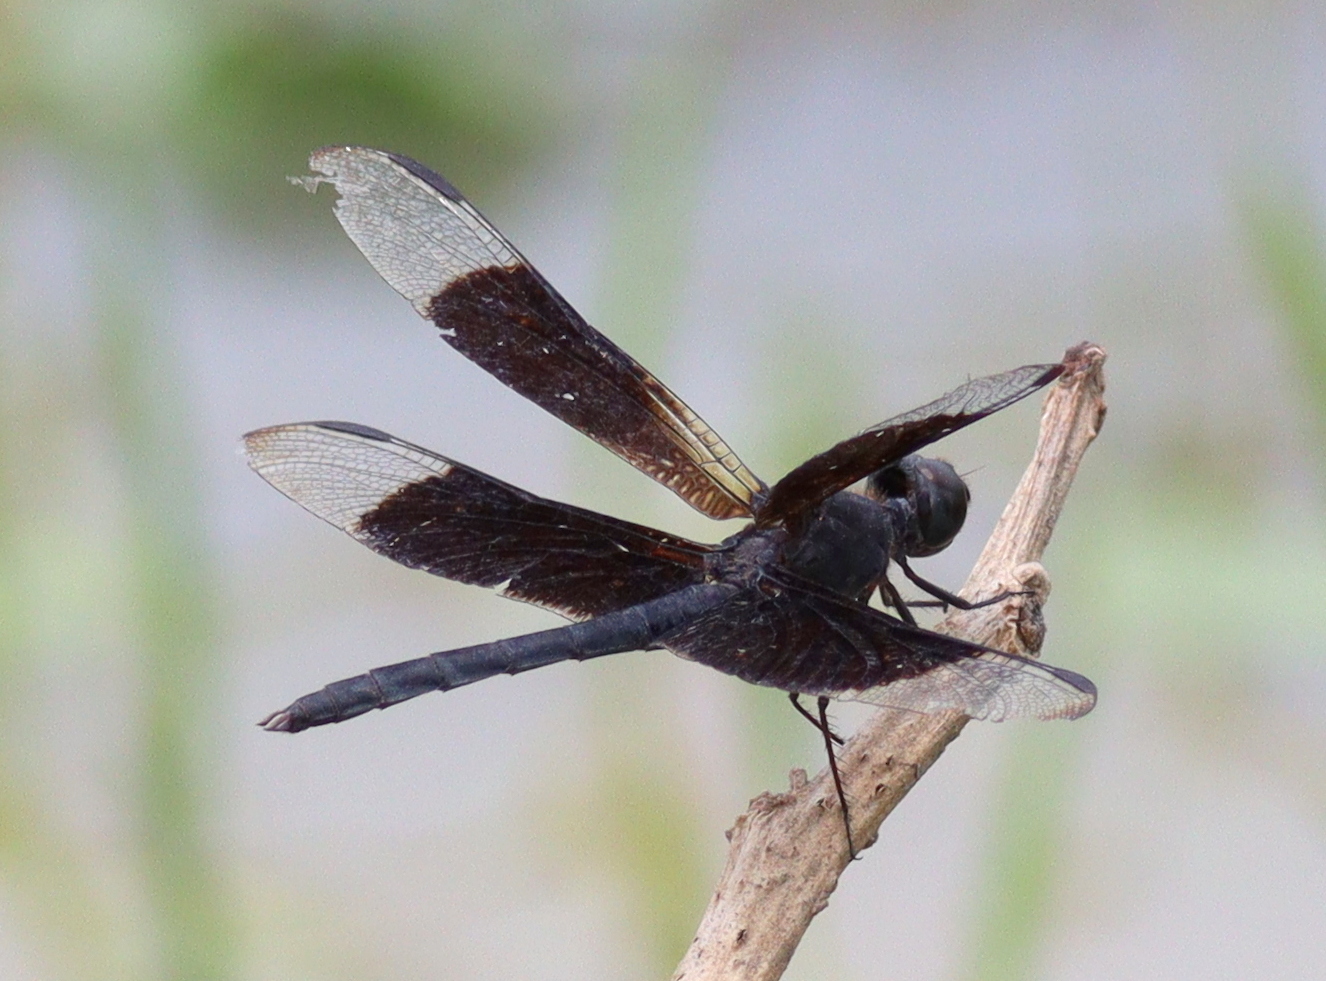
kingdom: Animalia
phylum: Arthropoda
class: Insecta
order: Odonata
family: Libellulidae
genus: Erythrodiplax
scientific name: Erythrodiplax funerea
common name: Black-winged dragonlet
